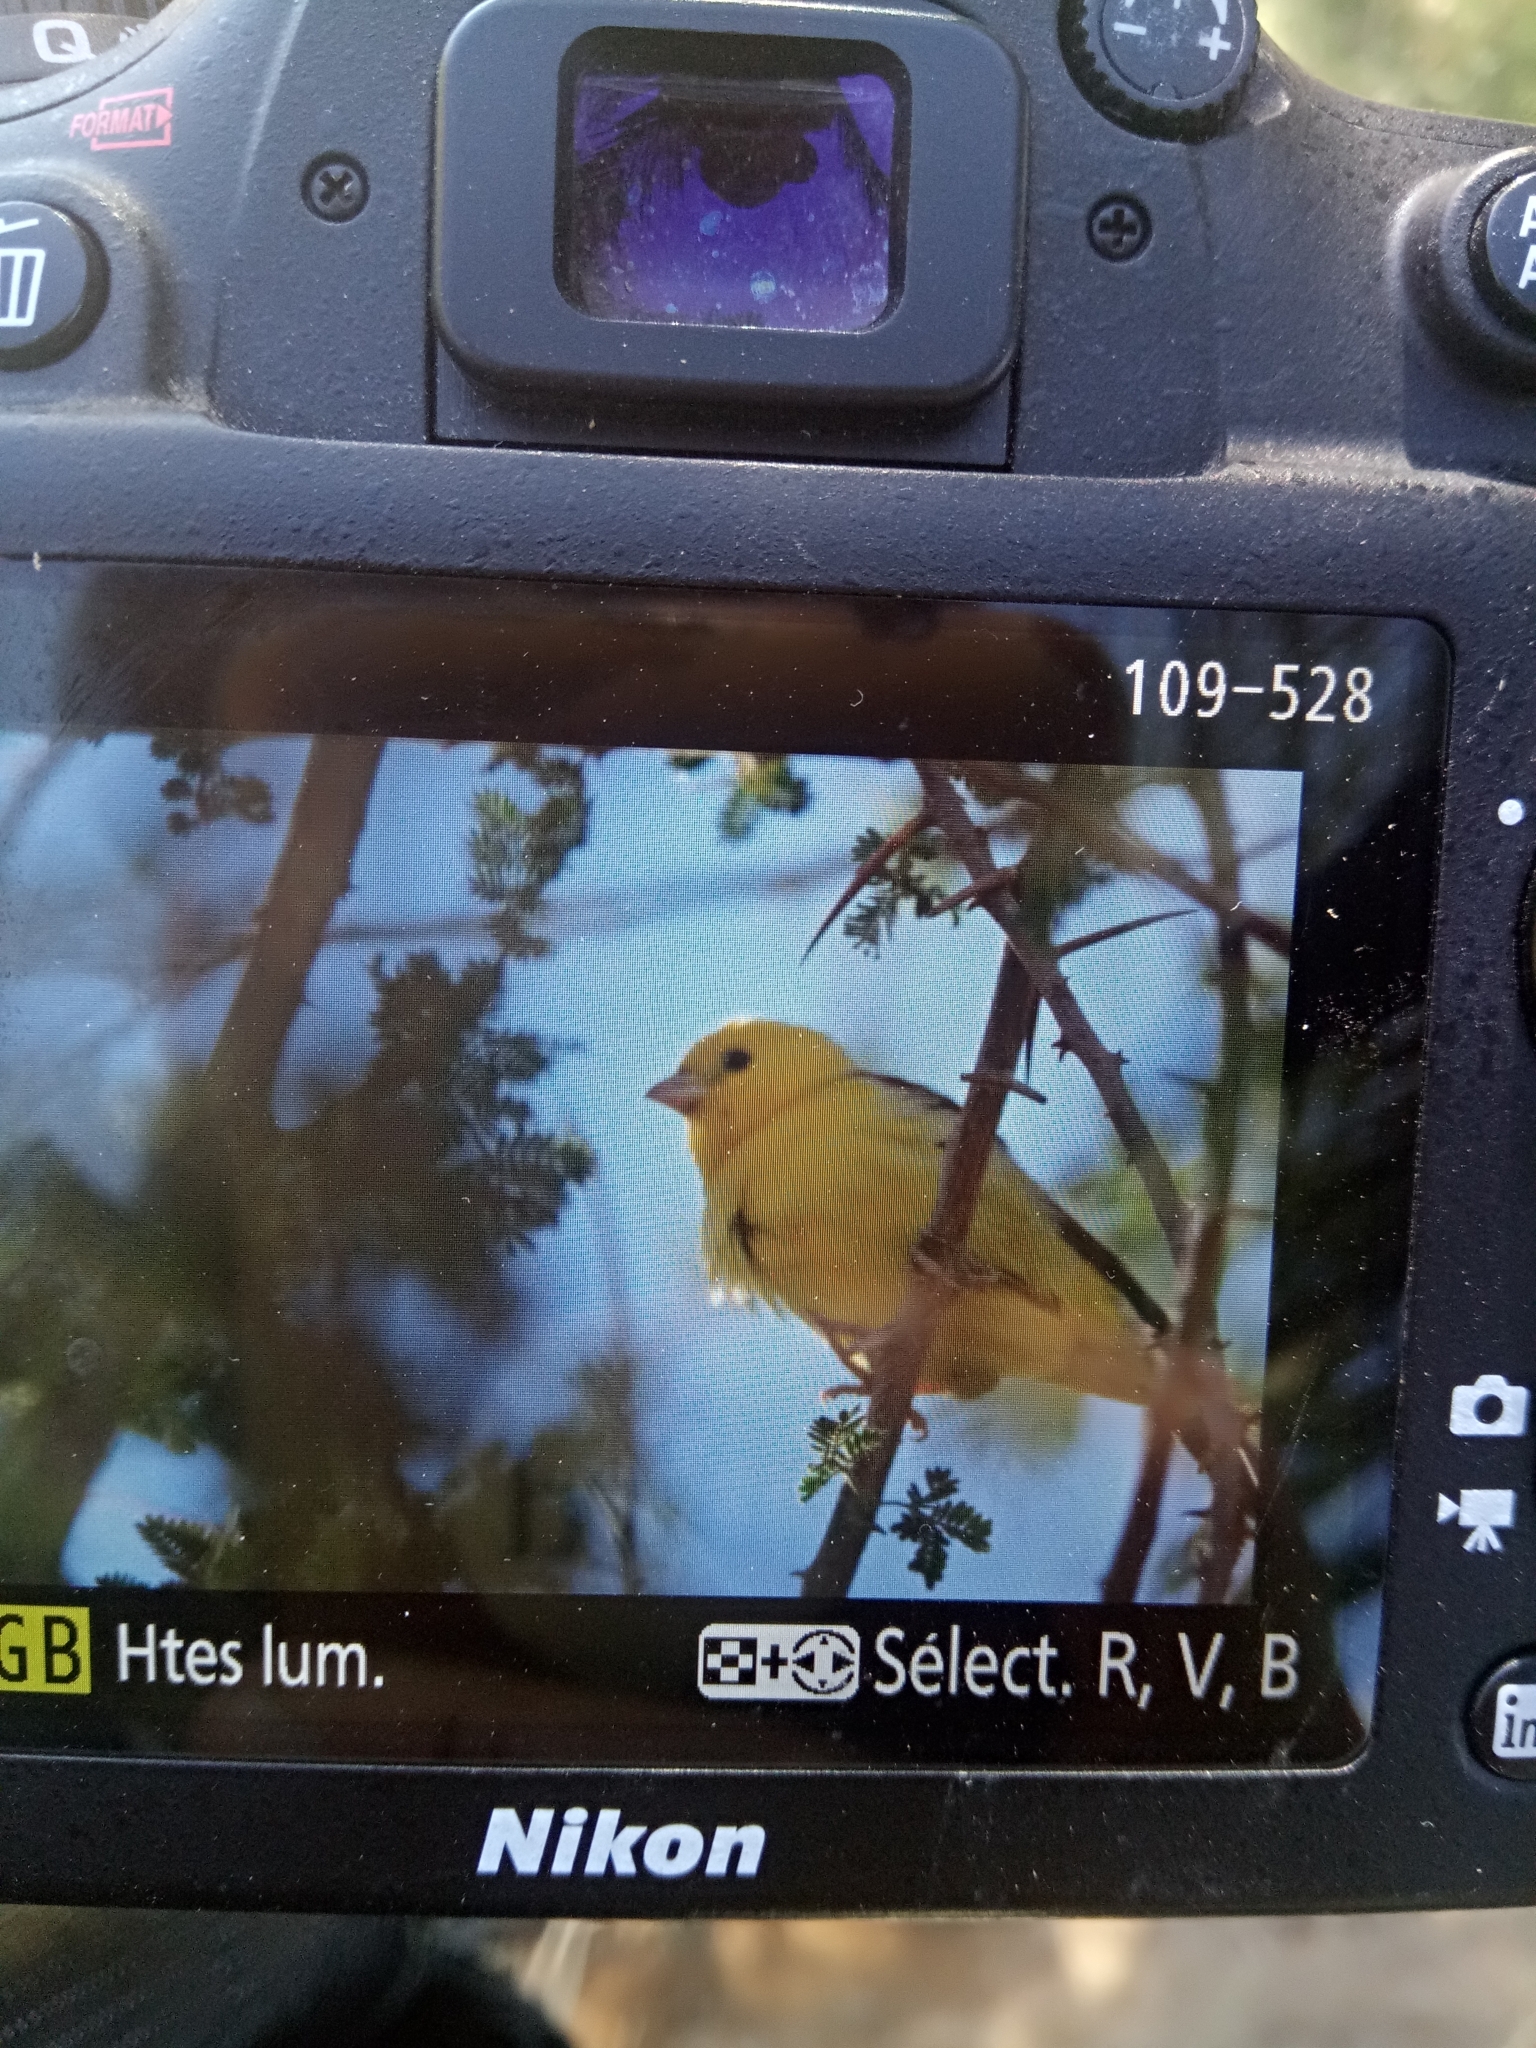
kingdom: Animalia
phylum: Chordata
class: Aves
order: Passeriformes
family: Passeridae
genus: Passer
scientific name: Passer luteus
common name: Sudan golden sparrow
